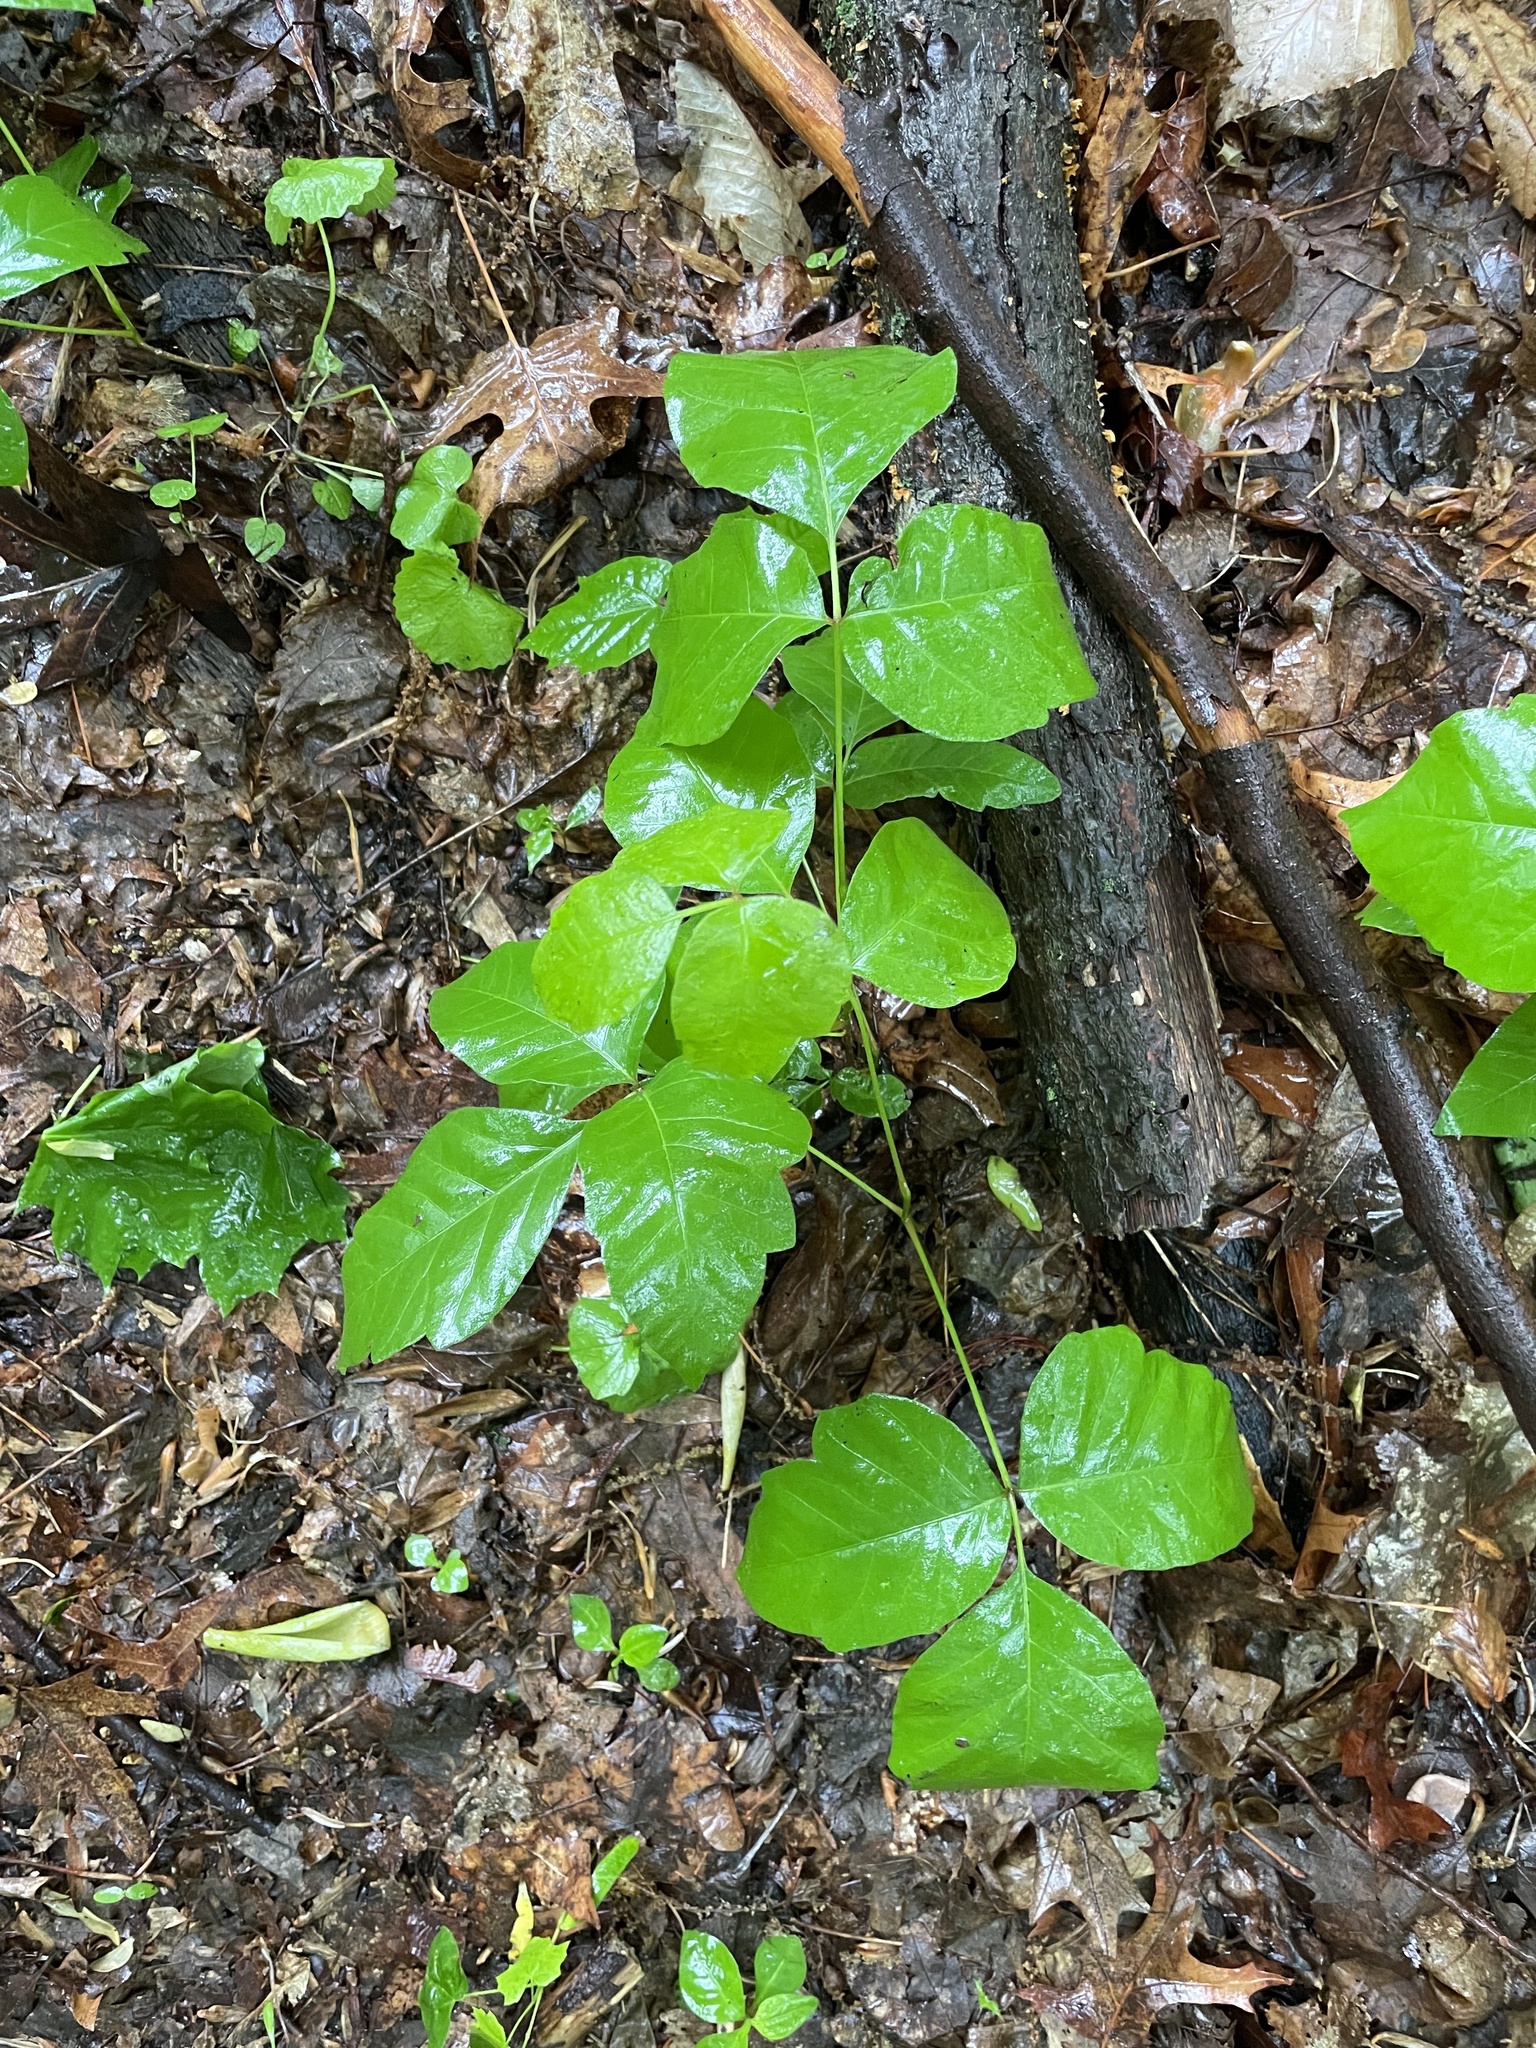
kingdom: Plantae
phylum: Tracheophyta
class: Magnoliopsida
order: Sapindales
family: Anacardiaceae
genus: Toxicodendron
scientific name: Toxicodendron radicans
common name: Poison ivy
